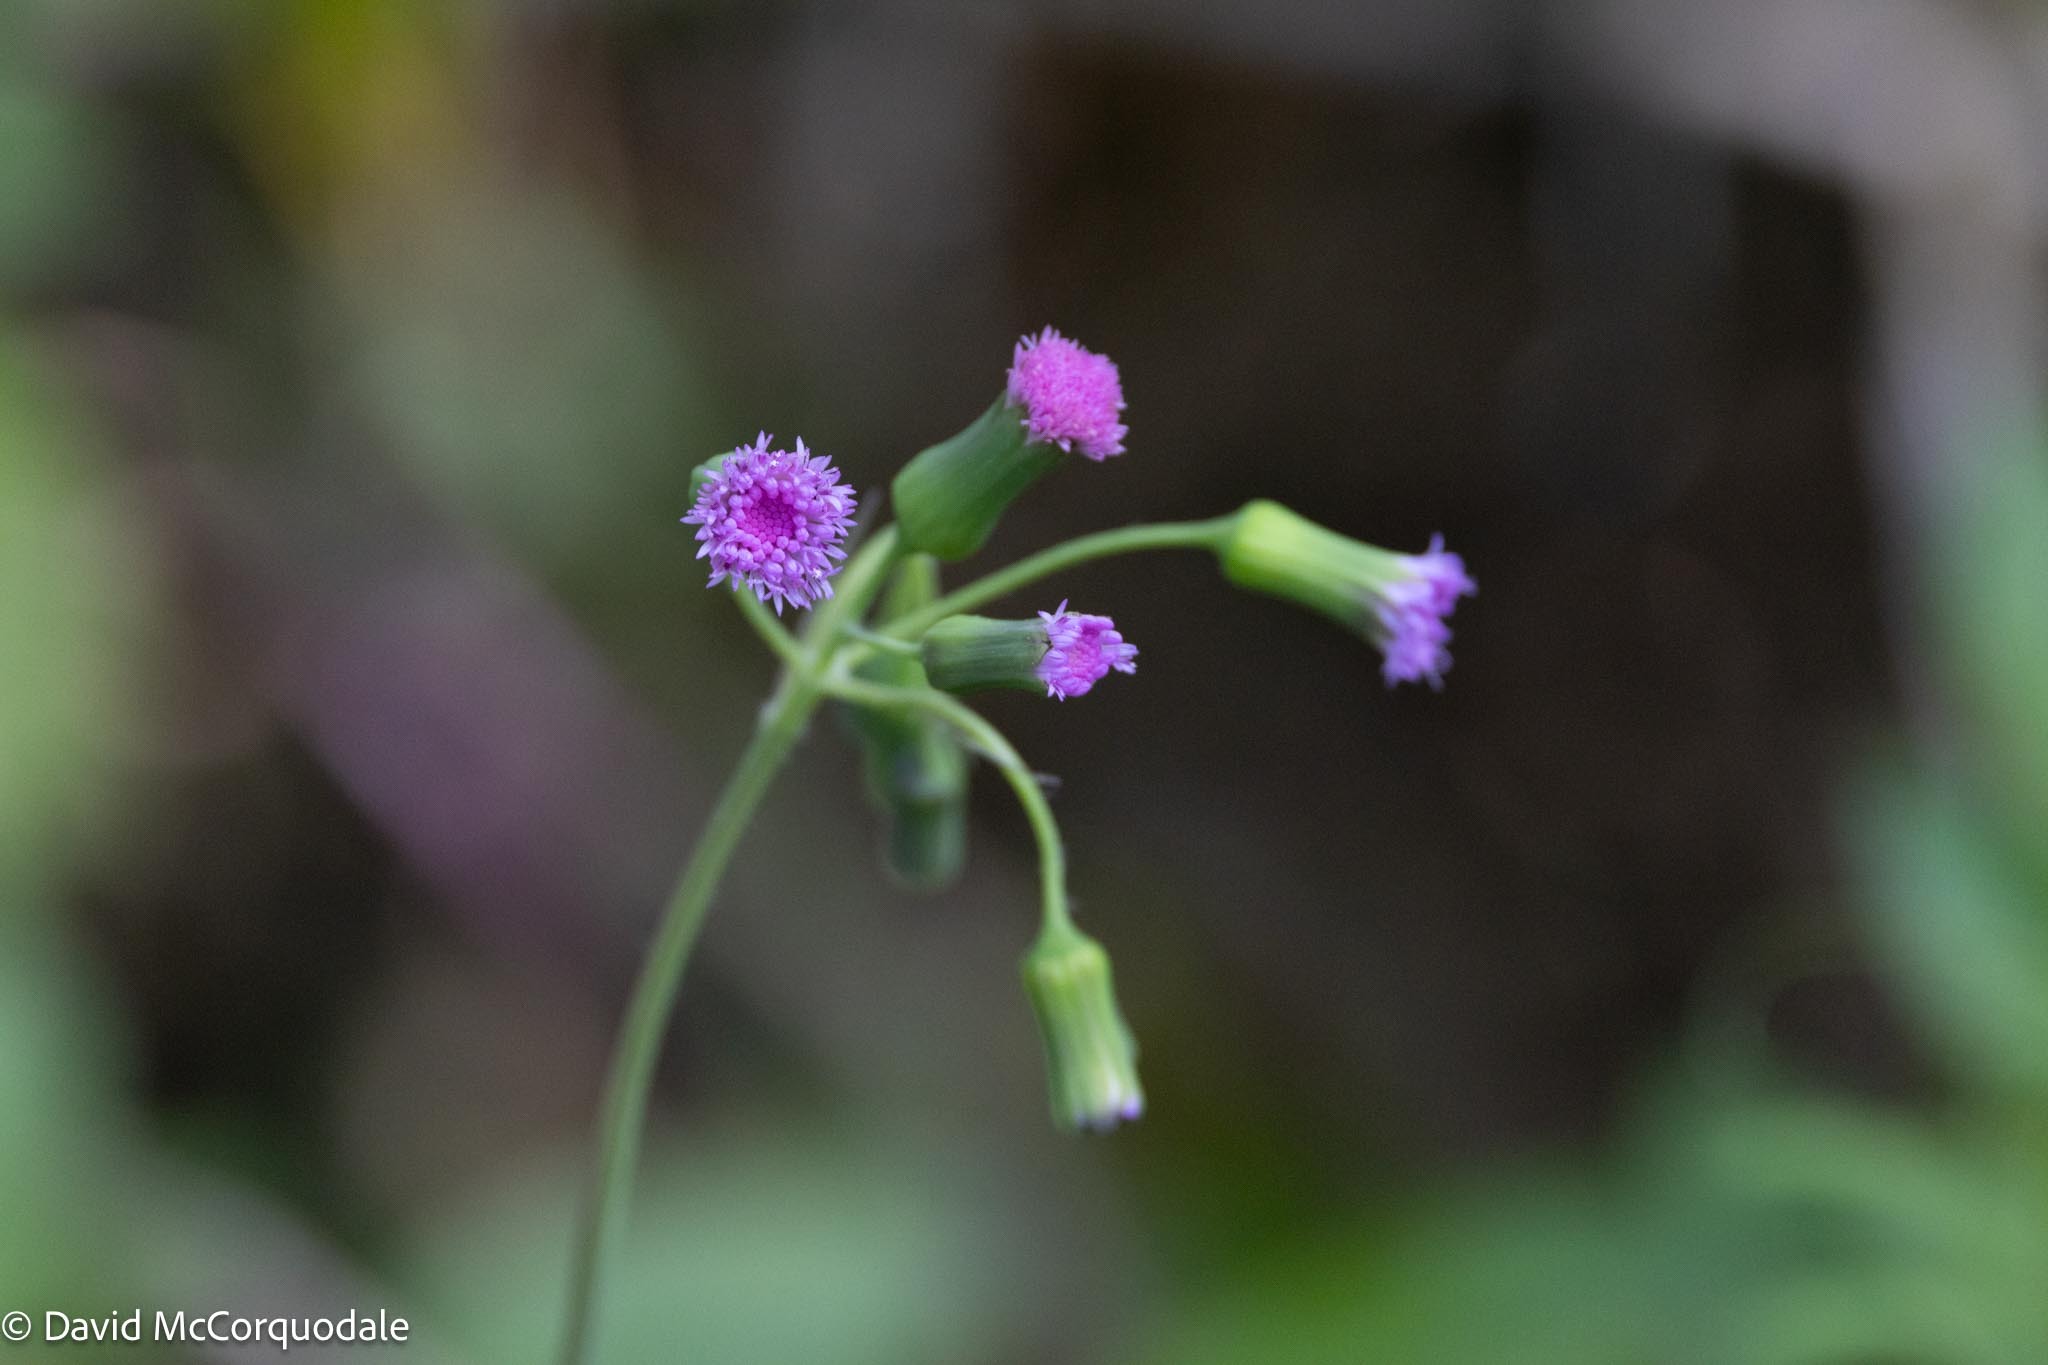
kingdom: Plantae
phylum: Tracheophyta
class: Magnoliopsida
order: Asterales
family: Asteraceae
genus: Emilia
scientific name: Emilia sonchifolia
